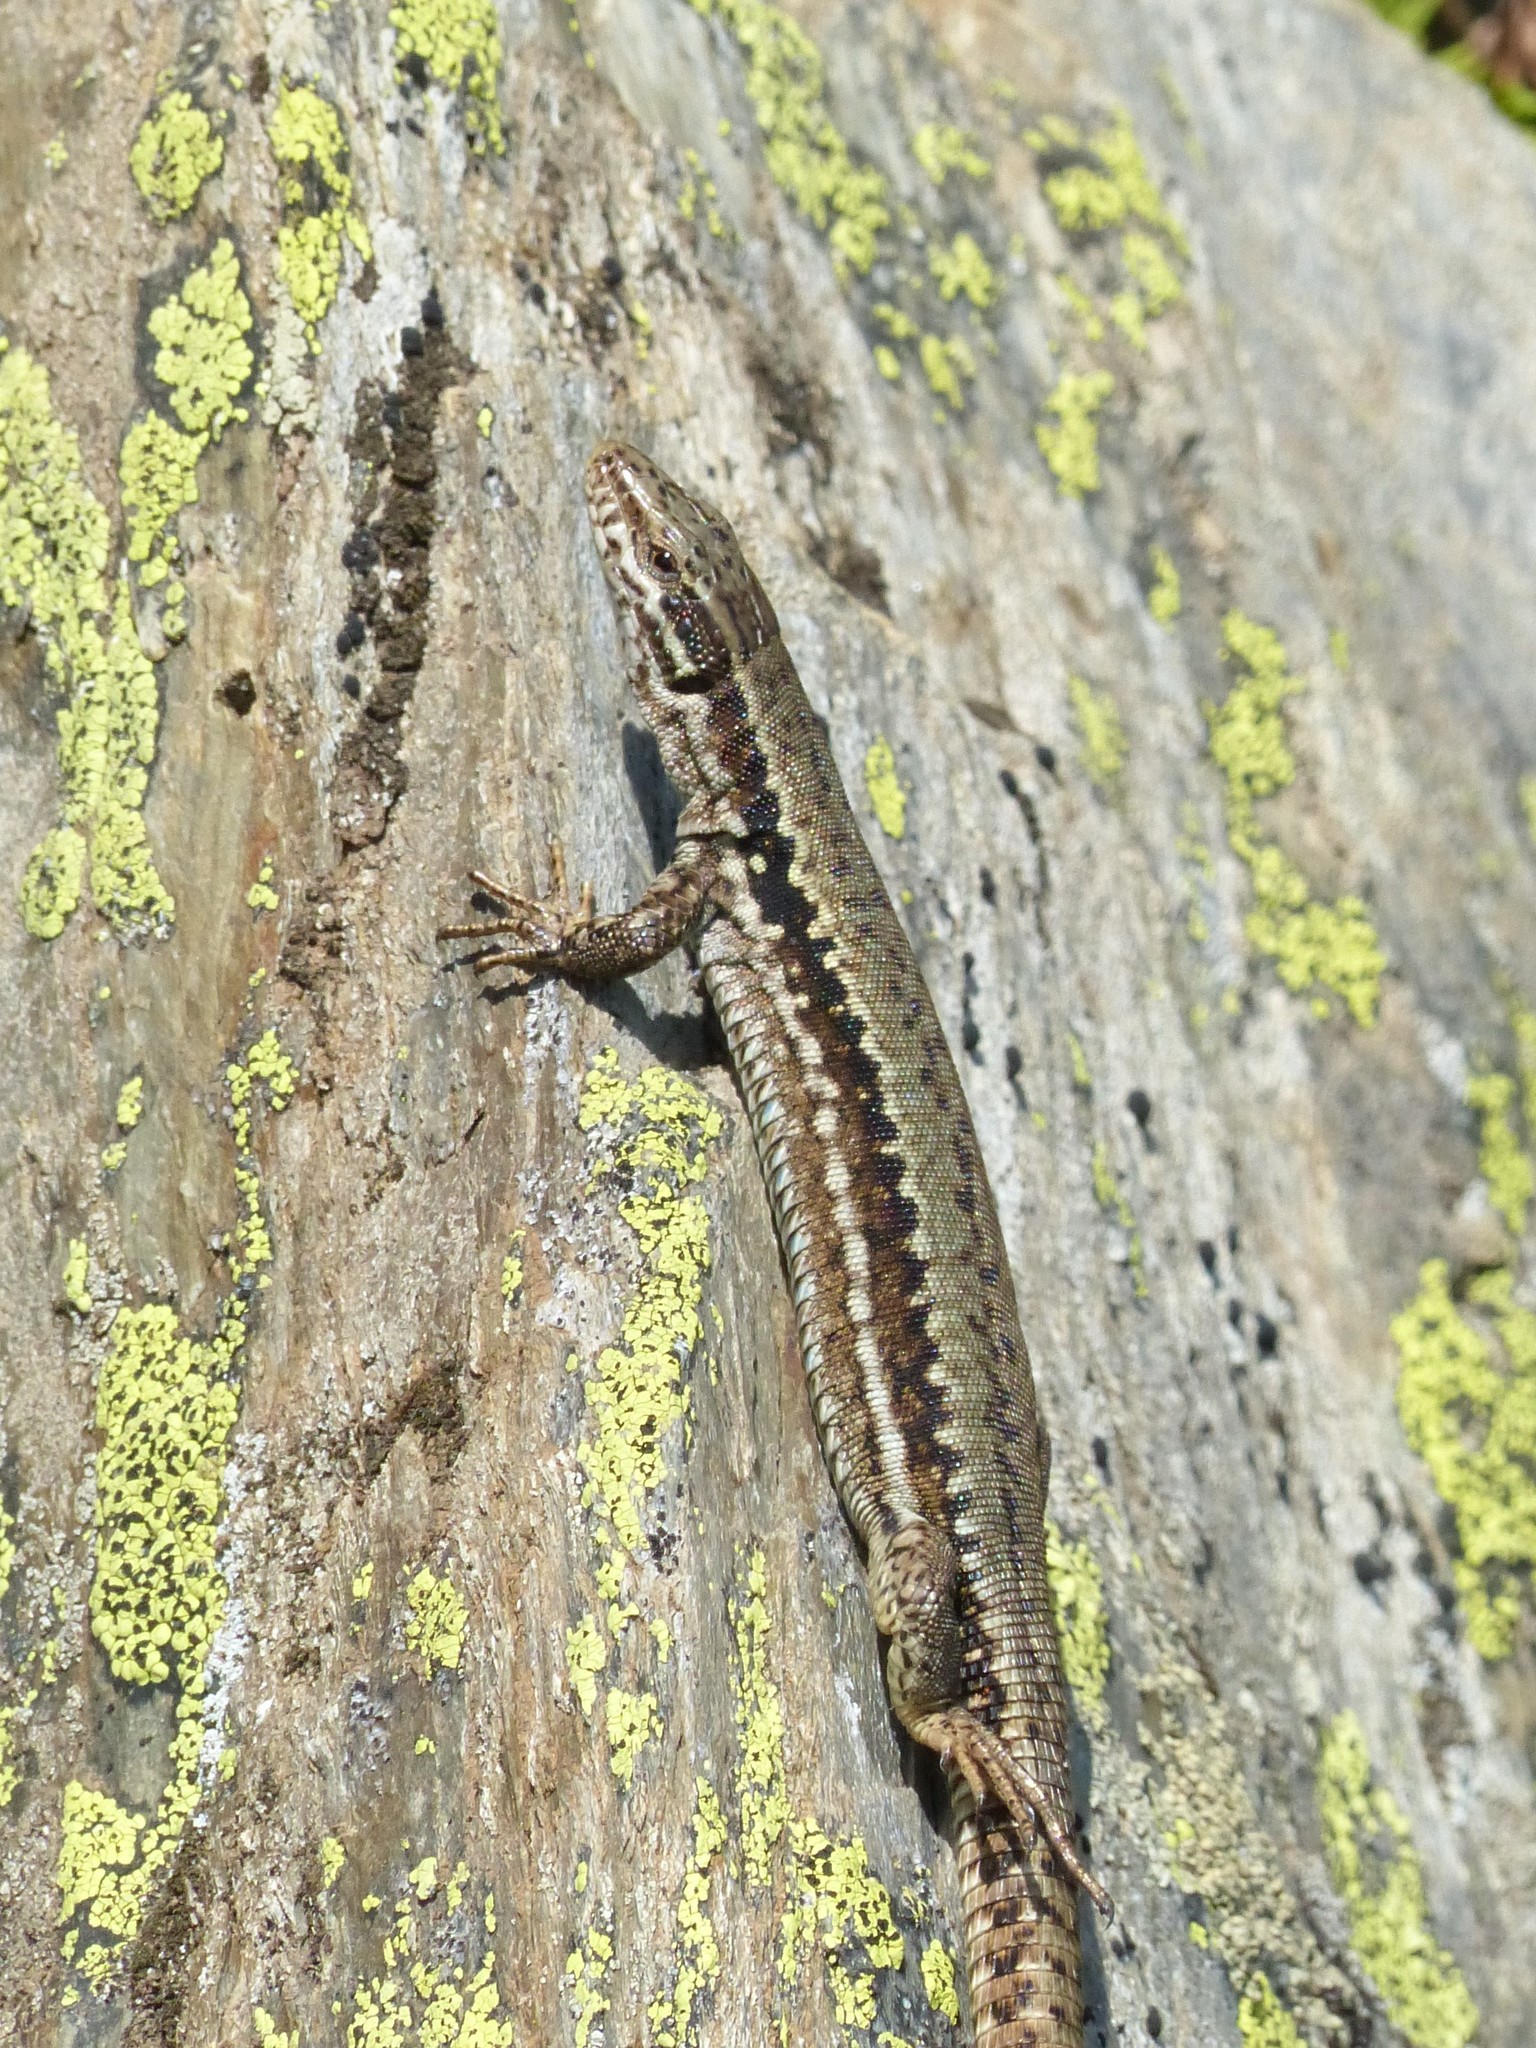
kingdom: Animalia
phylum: Chordata
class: Squamata
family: Lacertidae
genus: Podarcis
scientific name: Podarcis muralis
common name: Common wall lizard
